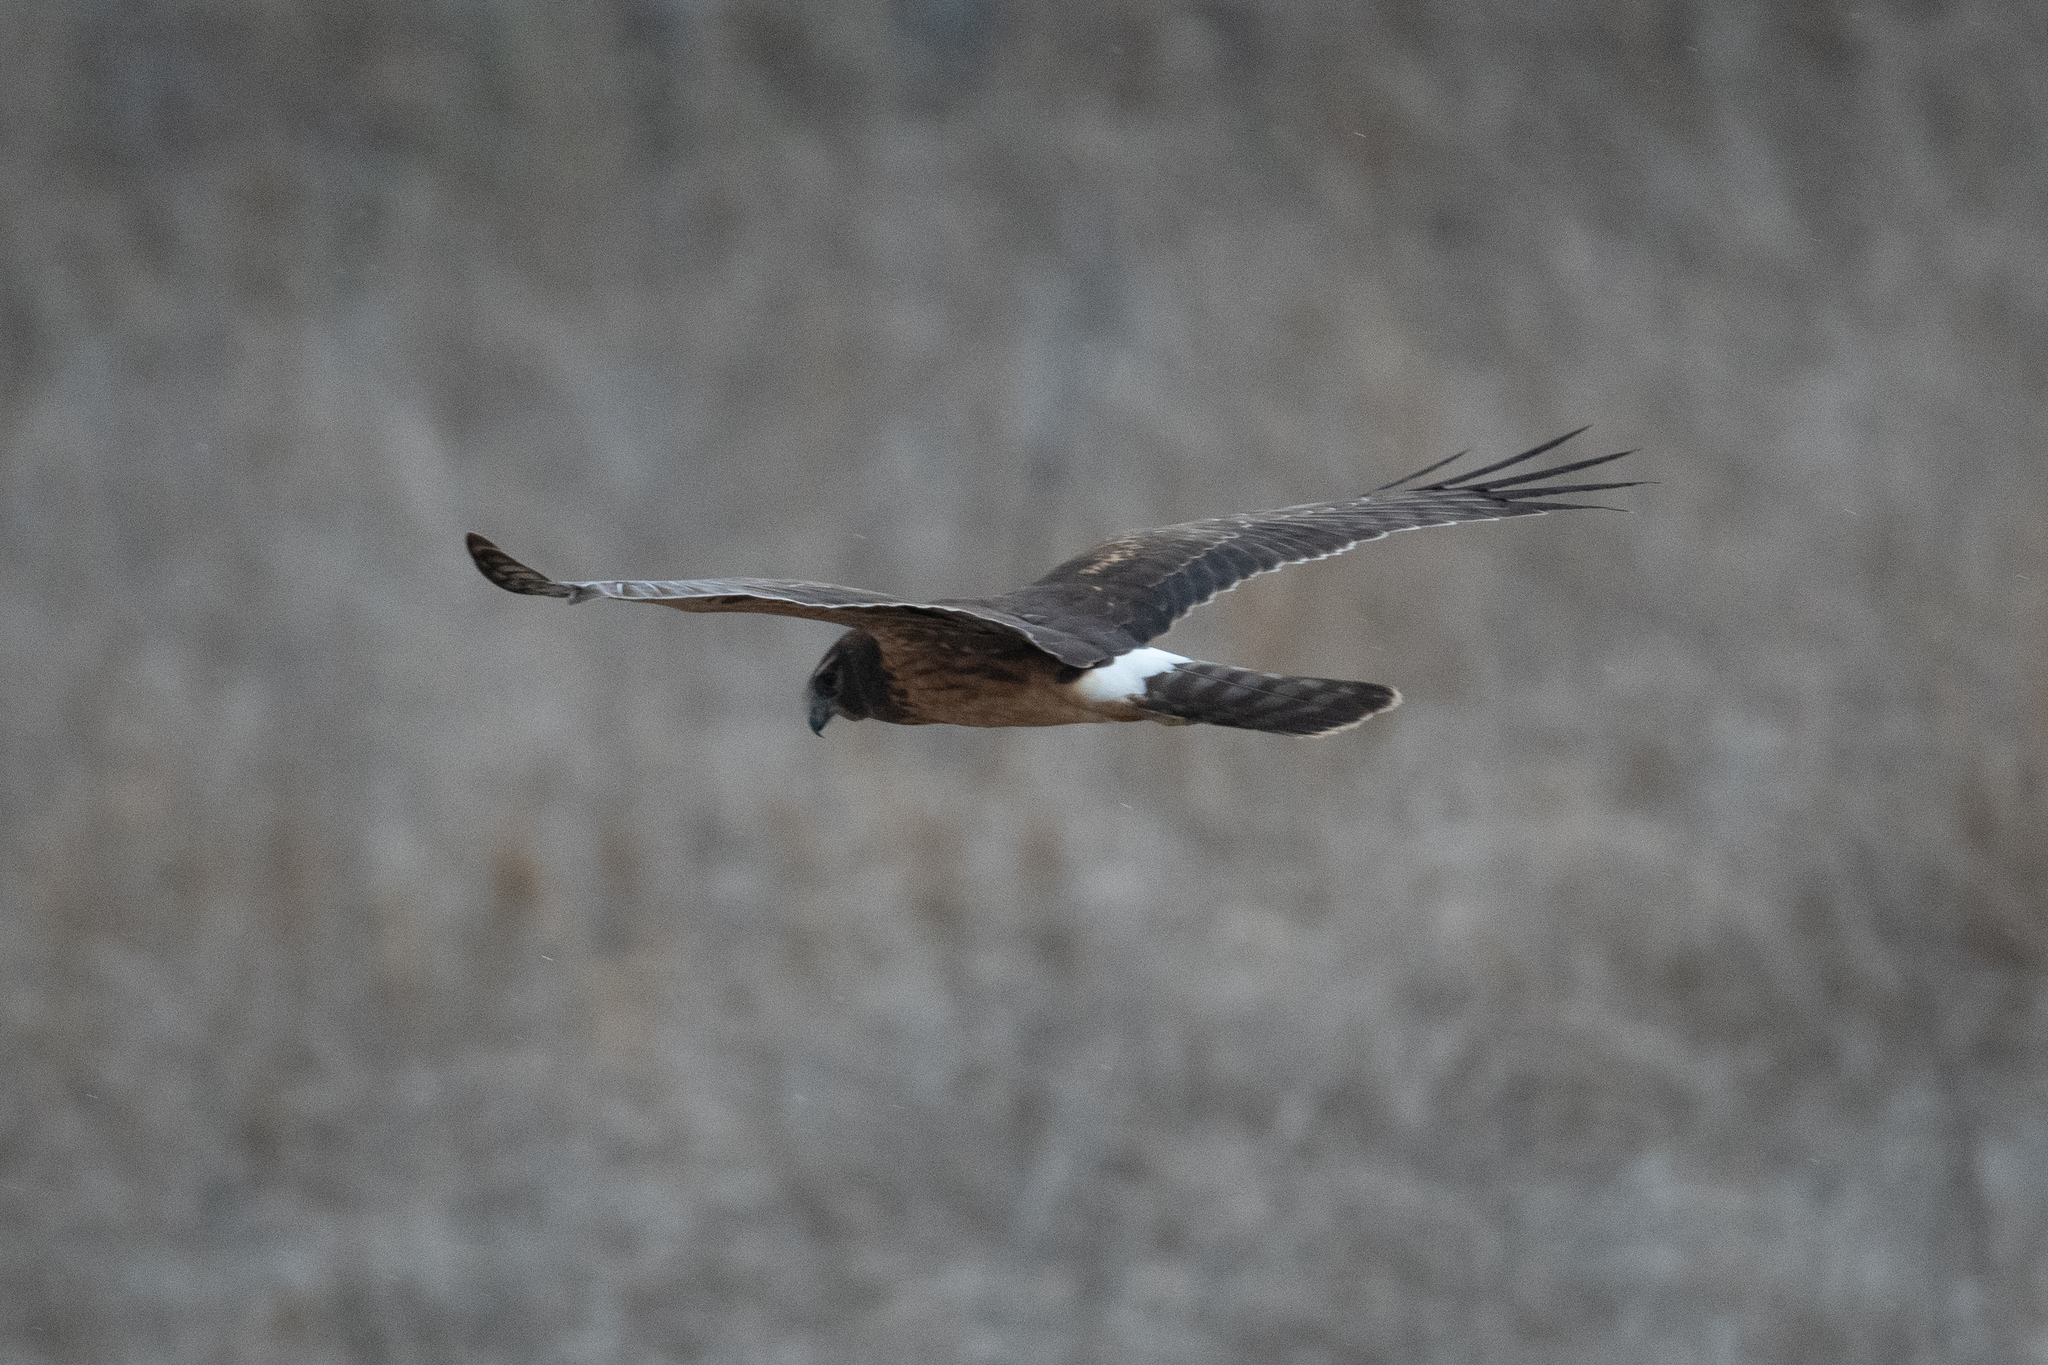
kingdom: Animalia
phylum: Chordata
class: Aves
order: Accipitriformes
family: Accipitridae
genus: Circus
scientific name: Circus cyaneus
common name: Hen harrier
